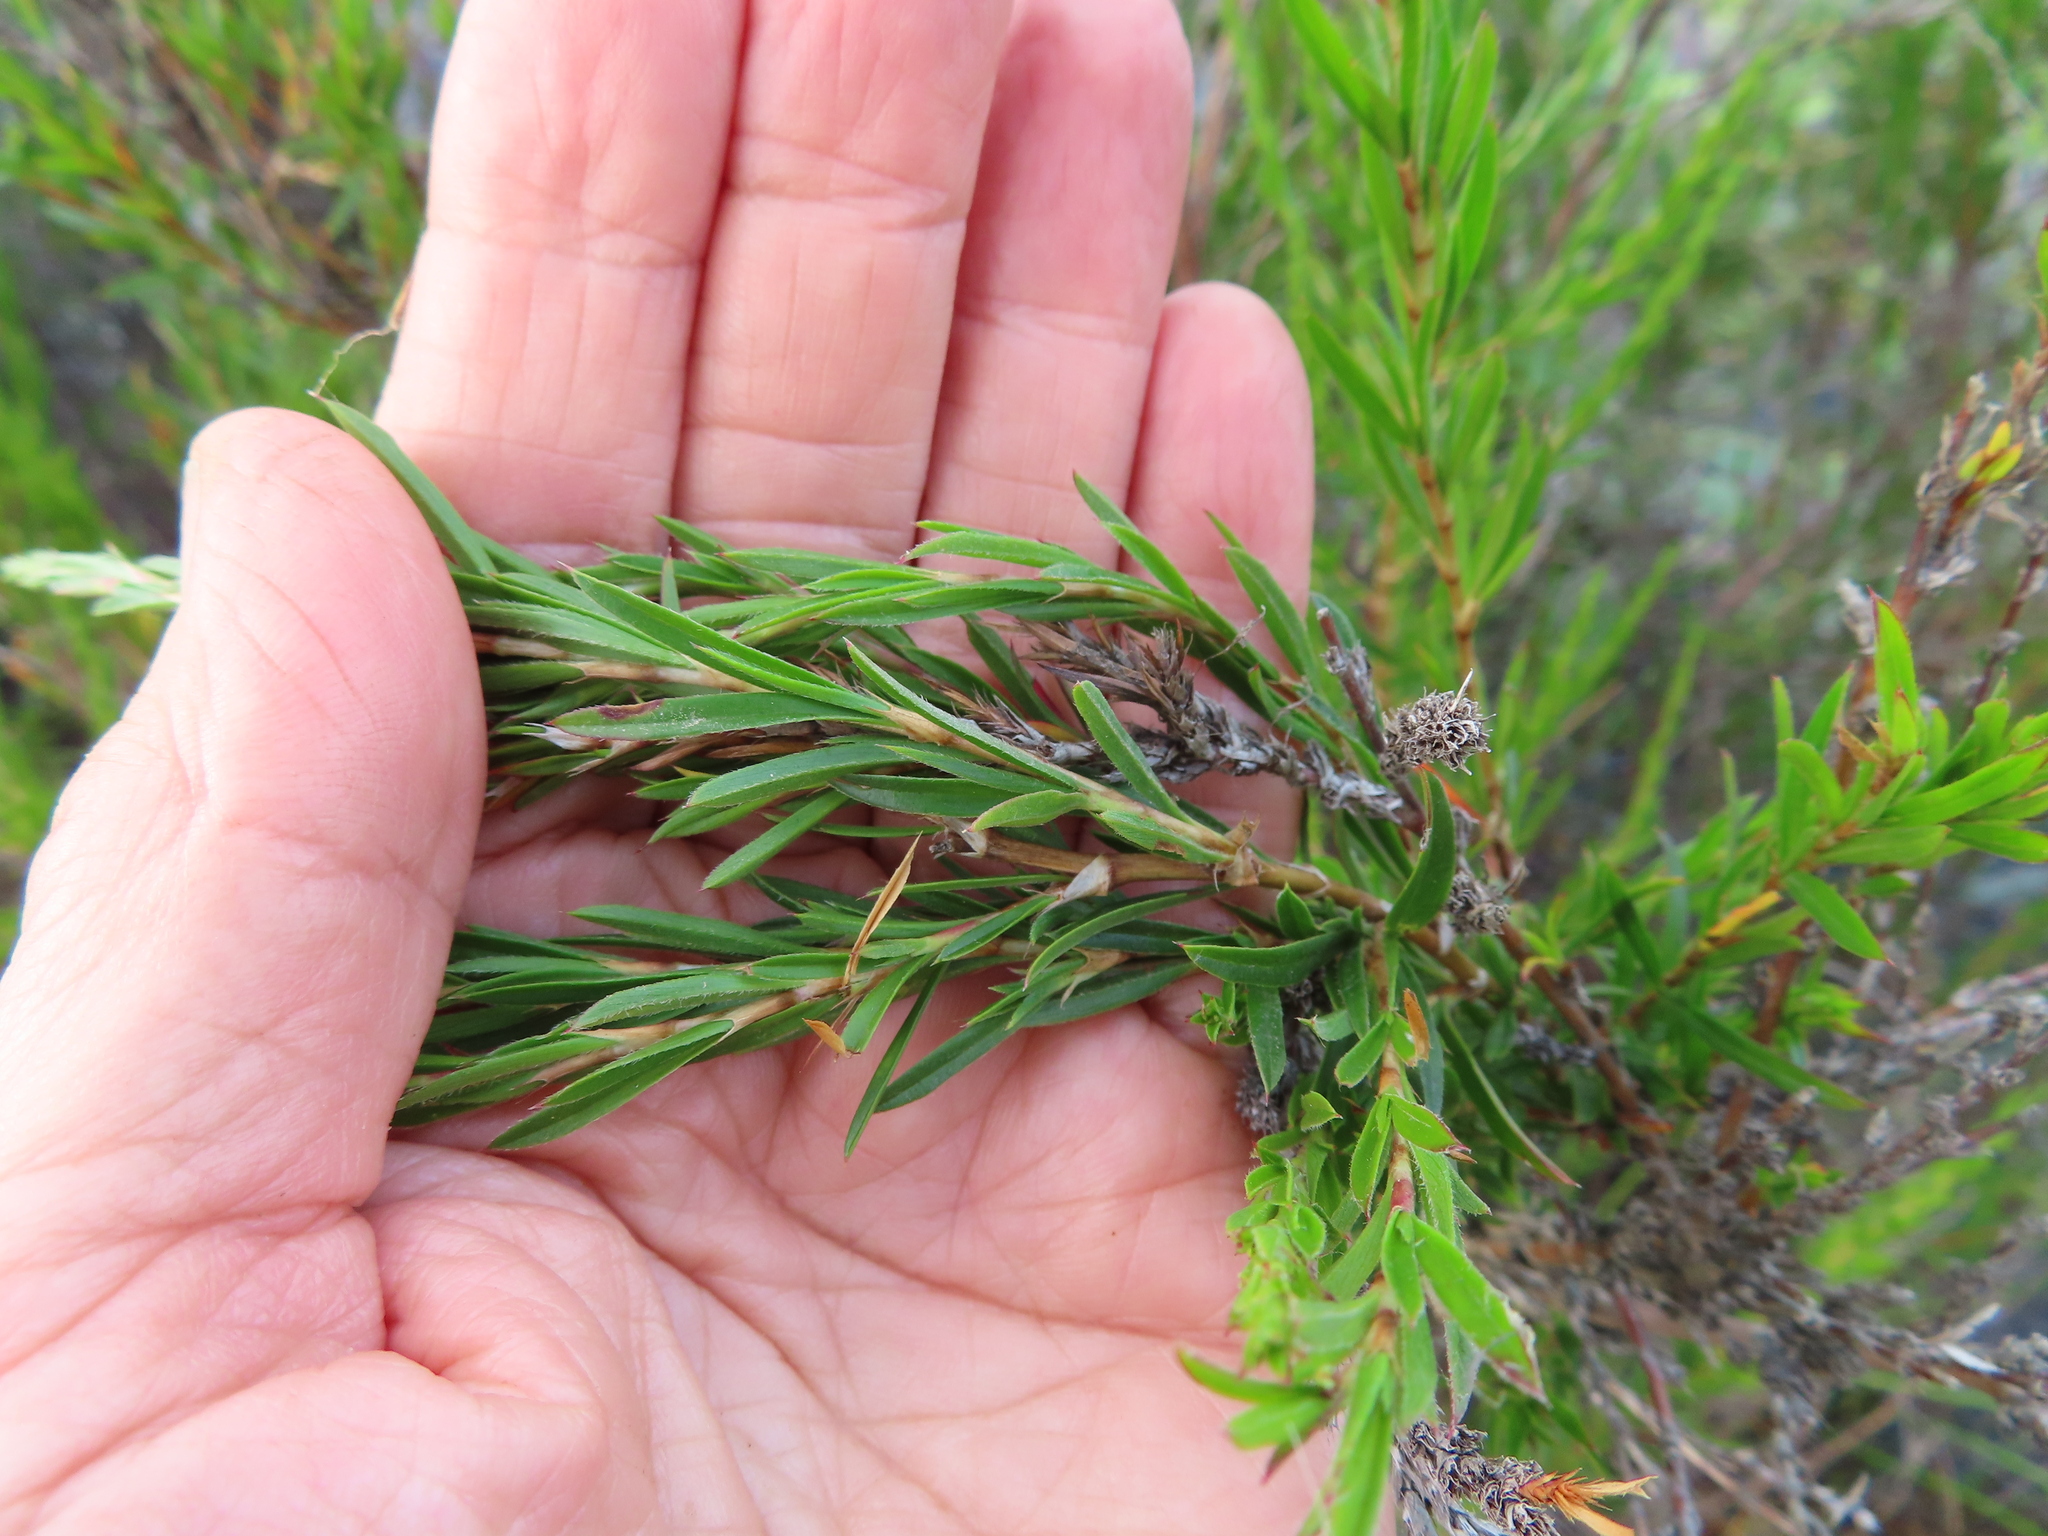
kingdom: Plantae
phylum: Tracheophyta
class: Magnoliopsida
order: Rosales
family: Rosaceae
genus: Cliffortia
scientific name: Cliffortia strobilifera
